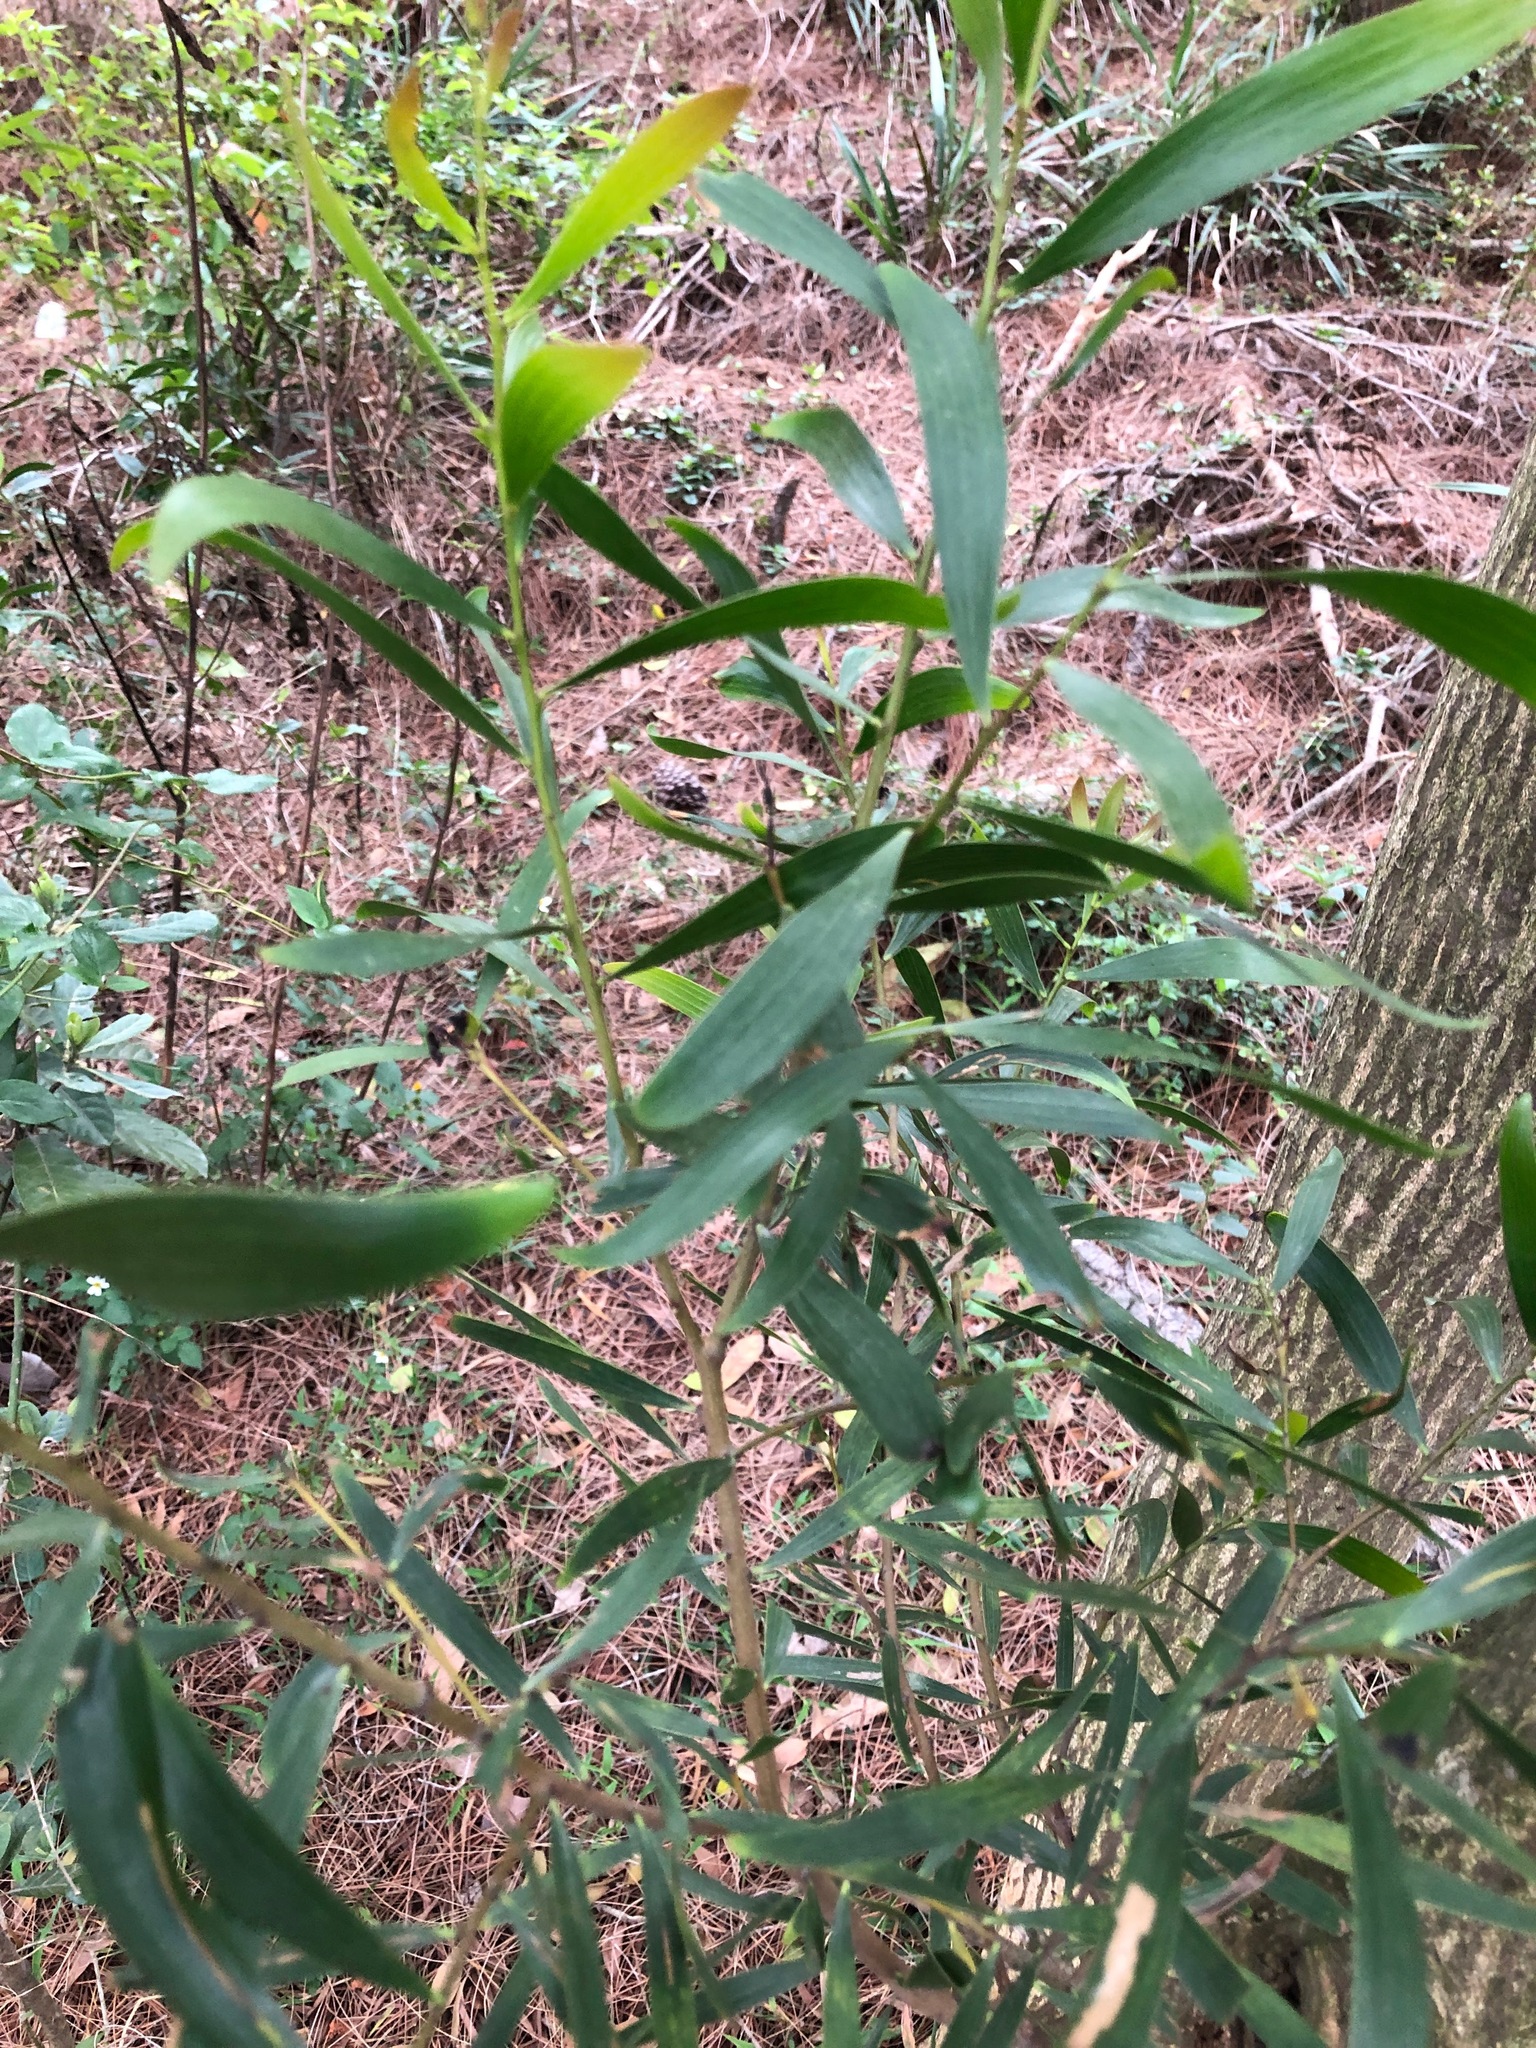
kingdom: Plantae
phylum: Tracheophyta
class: Magnoliopsida
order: Fabales
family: Fabaceae
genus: Acacia
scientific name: Acacia confusa
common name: Formosan koa
